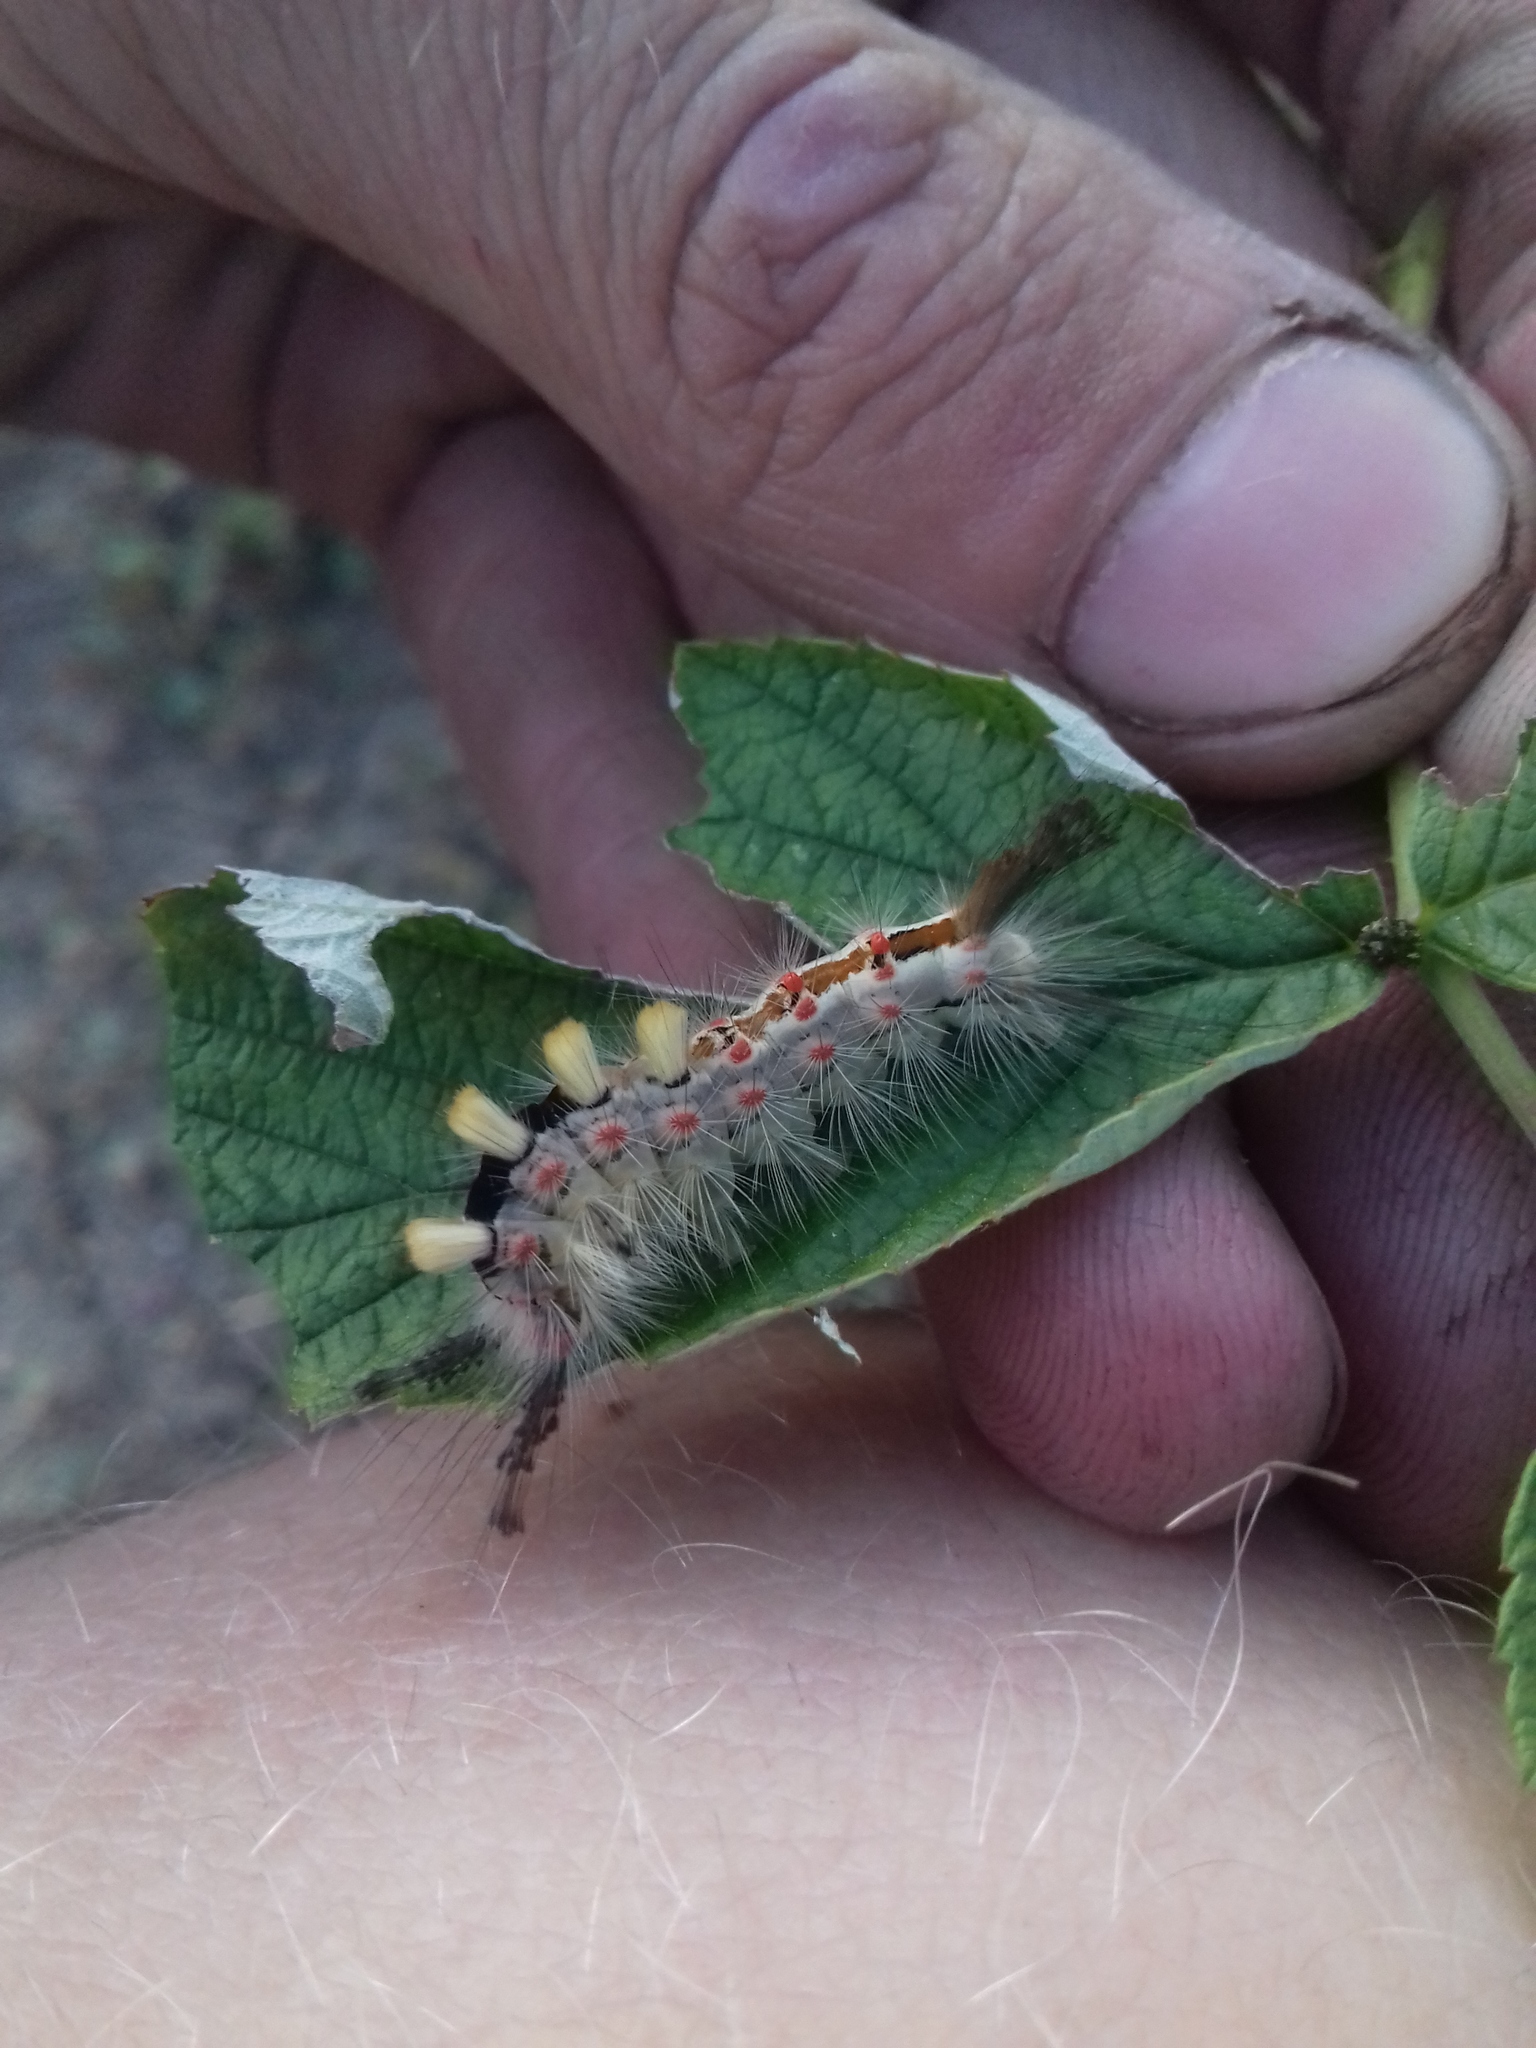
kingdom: Animalia
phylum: Arthropoda
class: Insecta
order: Lepidoptera
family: Erebidae
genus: Orgyia
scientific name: Orgyia antiqua
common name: Vapourer
